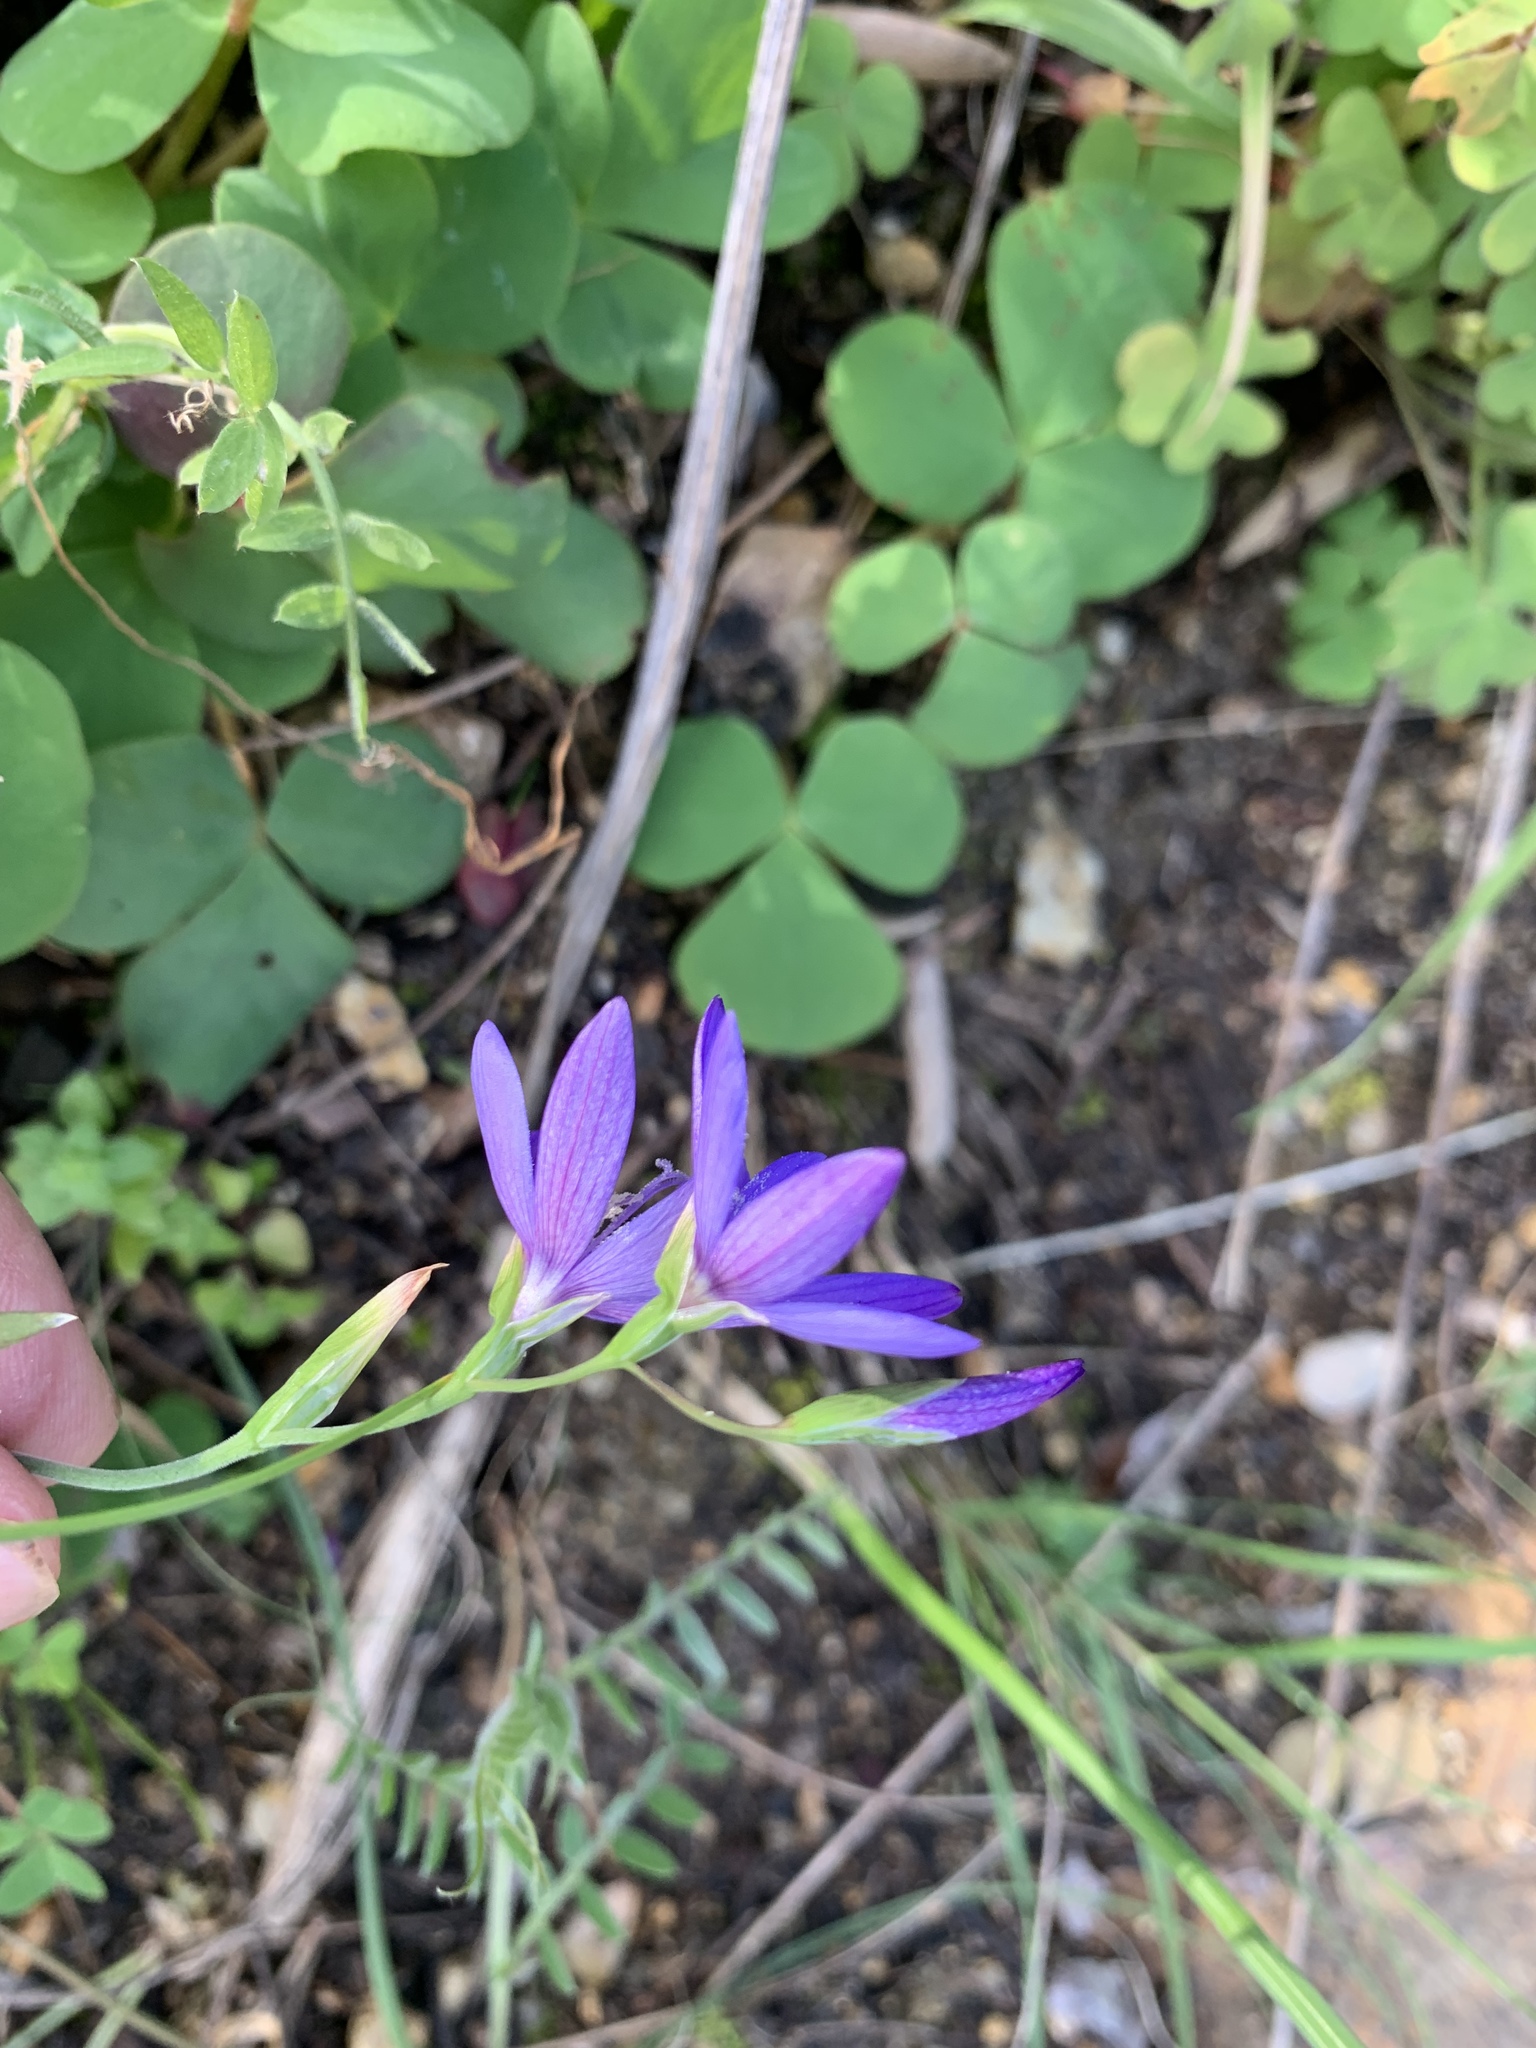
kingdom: Plantae
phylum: Tracheophyta
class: Liliopsida
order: Asparagales
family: Iridaceae
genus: Geissorhiza
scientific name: Geissorhiza aspera
